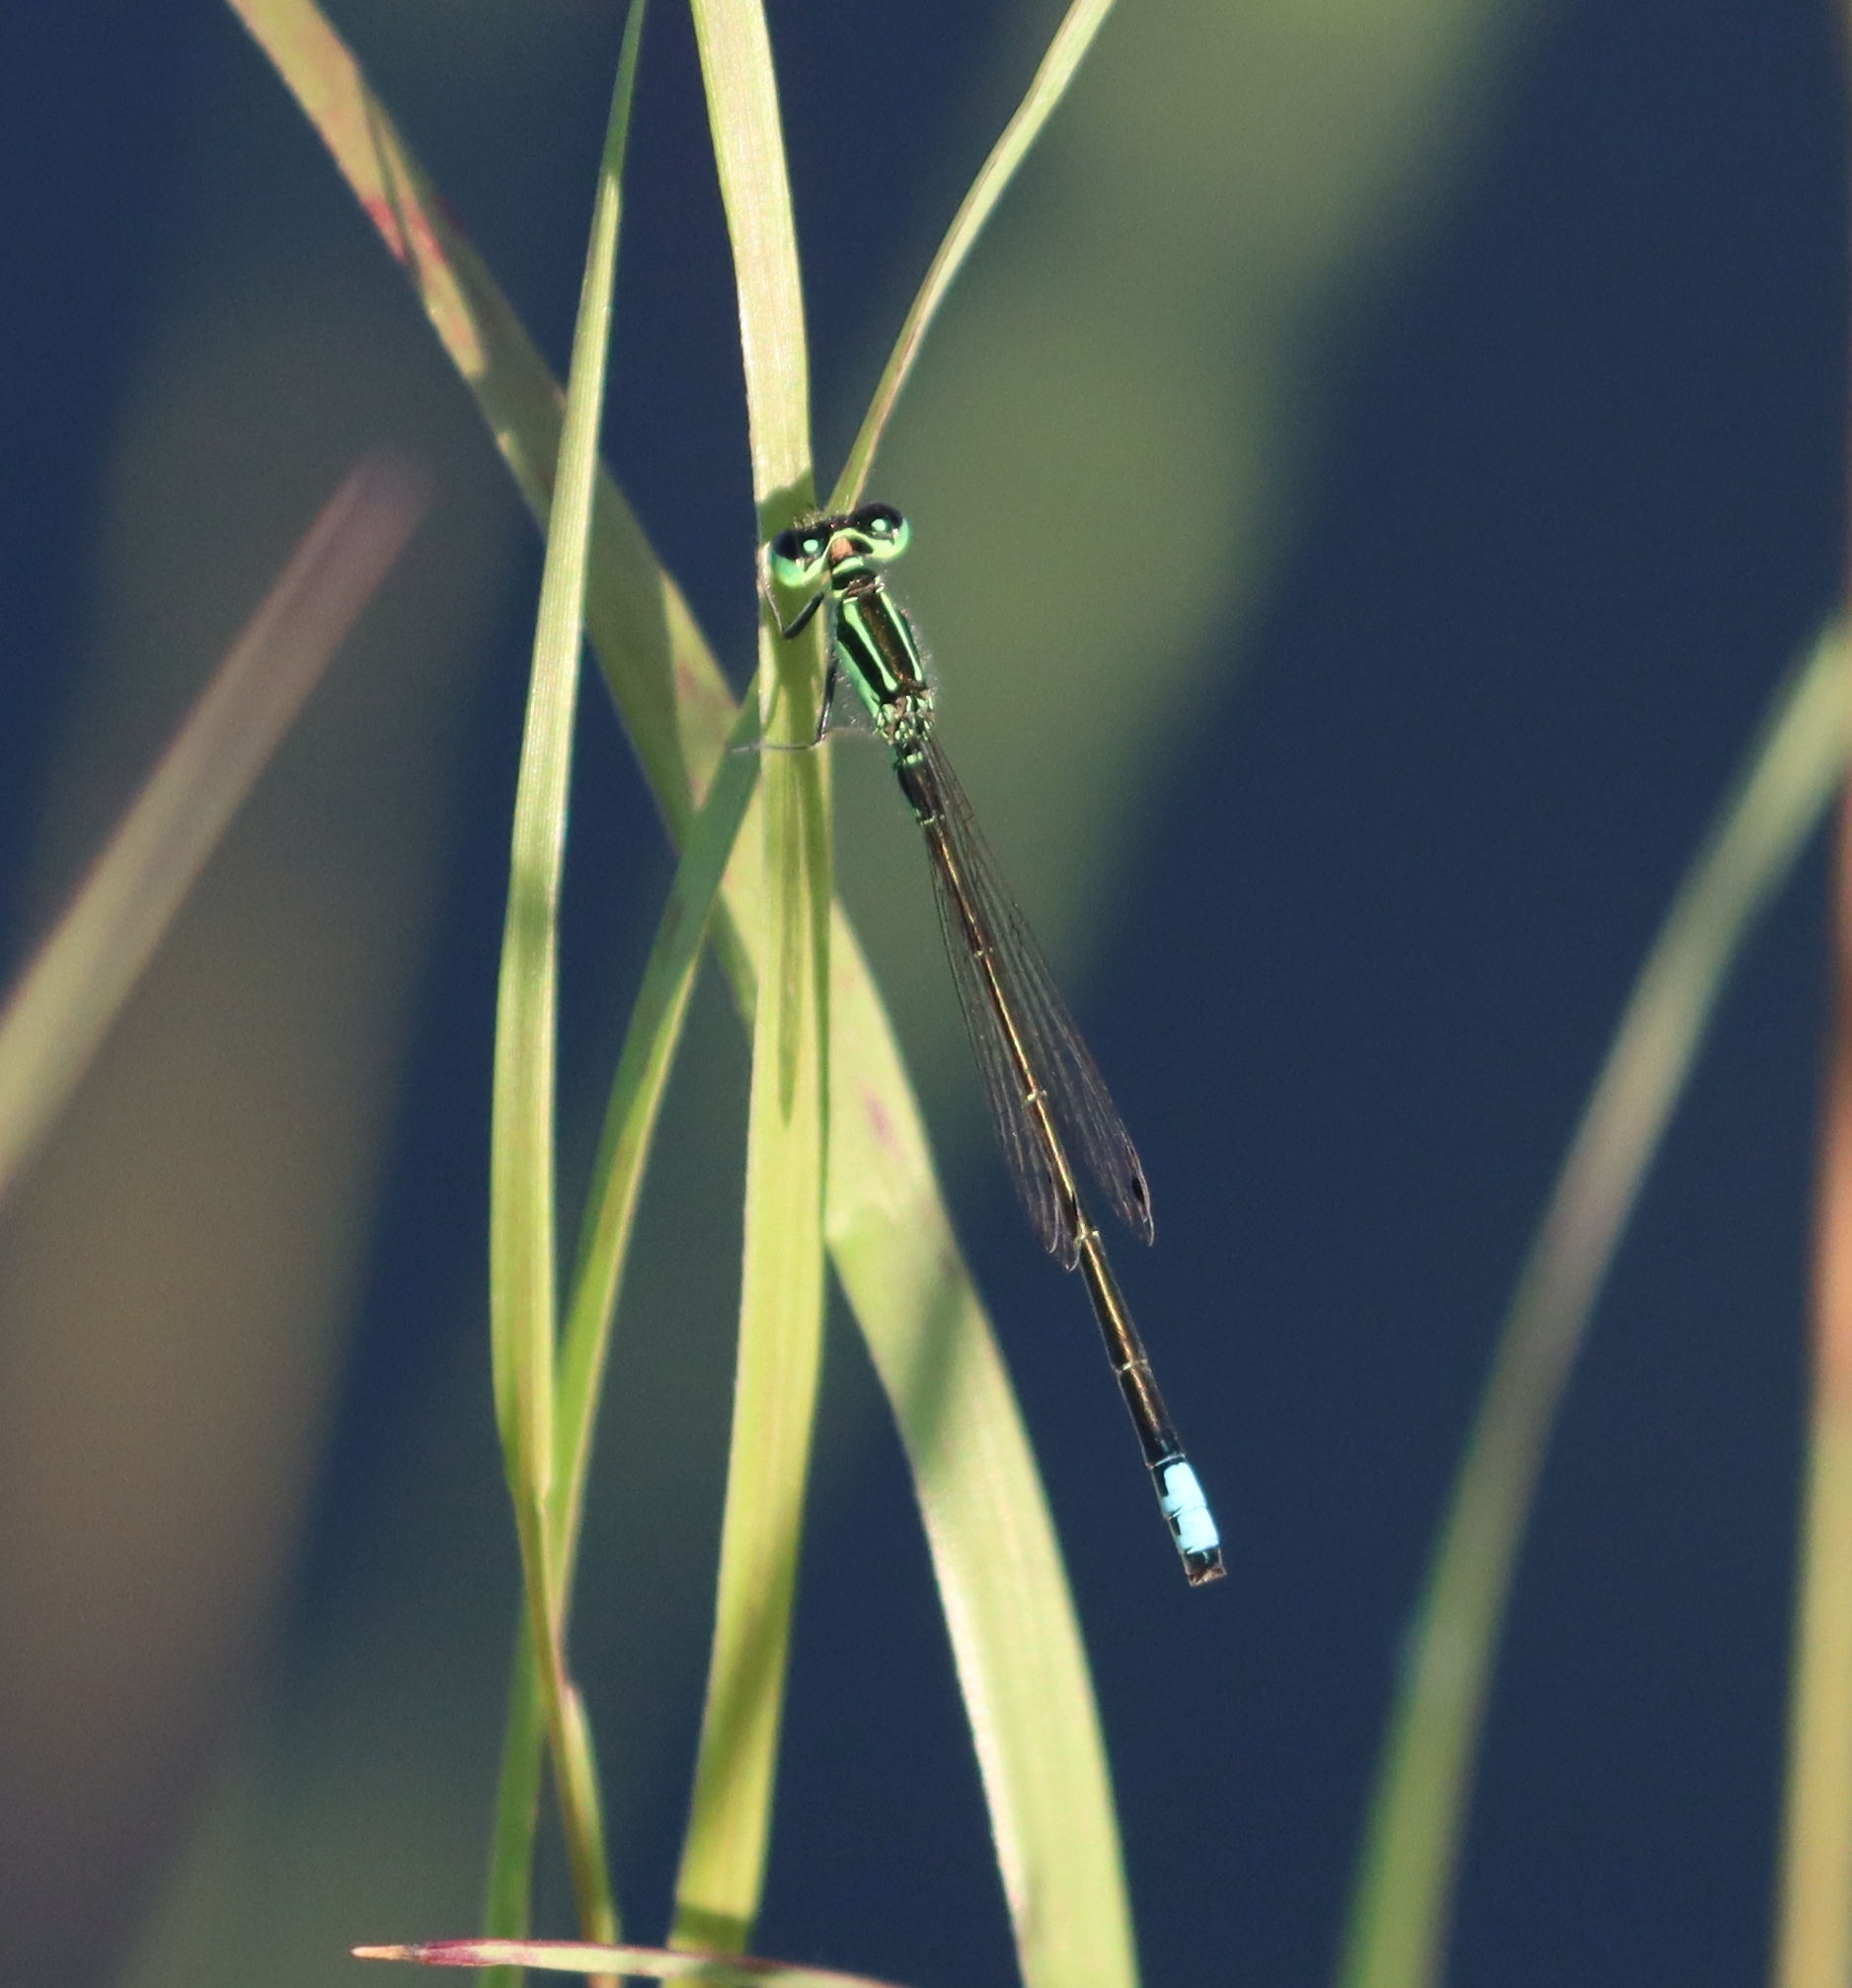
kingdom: Animalia
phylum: Arthropoda
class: Insecta
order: Odonata
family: Coenagrionidae
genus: Ischnura
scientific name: Ischnura verticalis
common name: Eastern forktail
